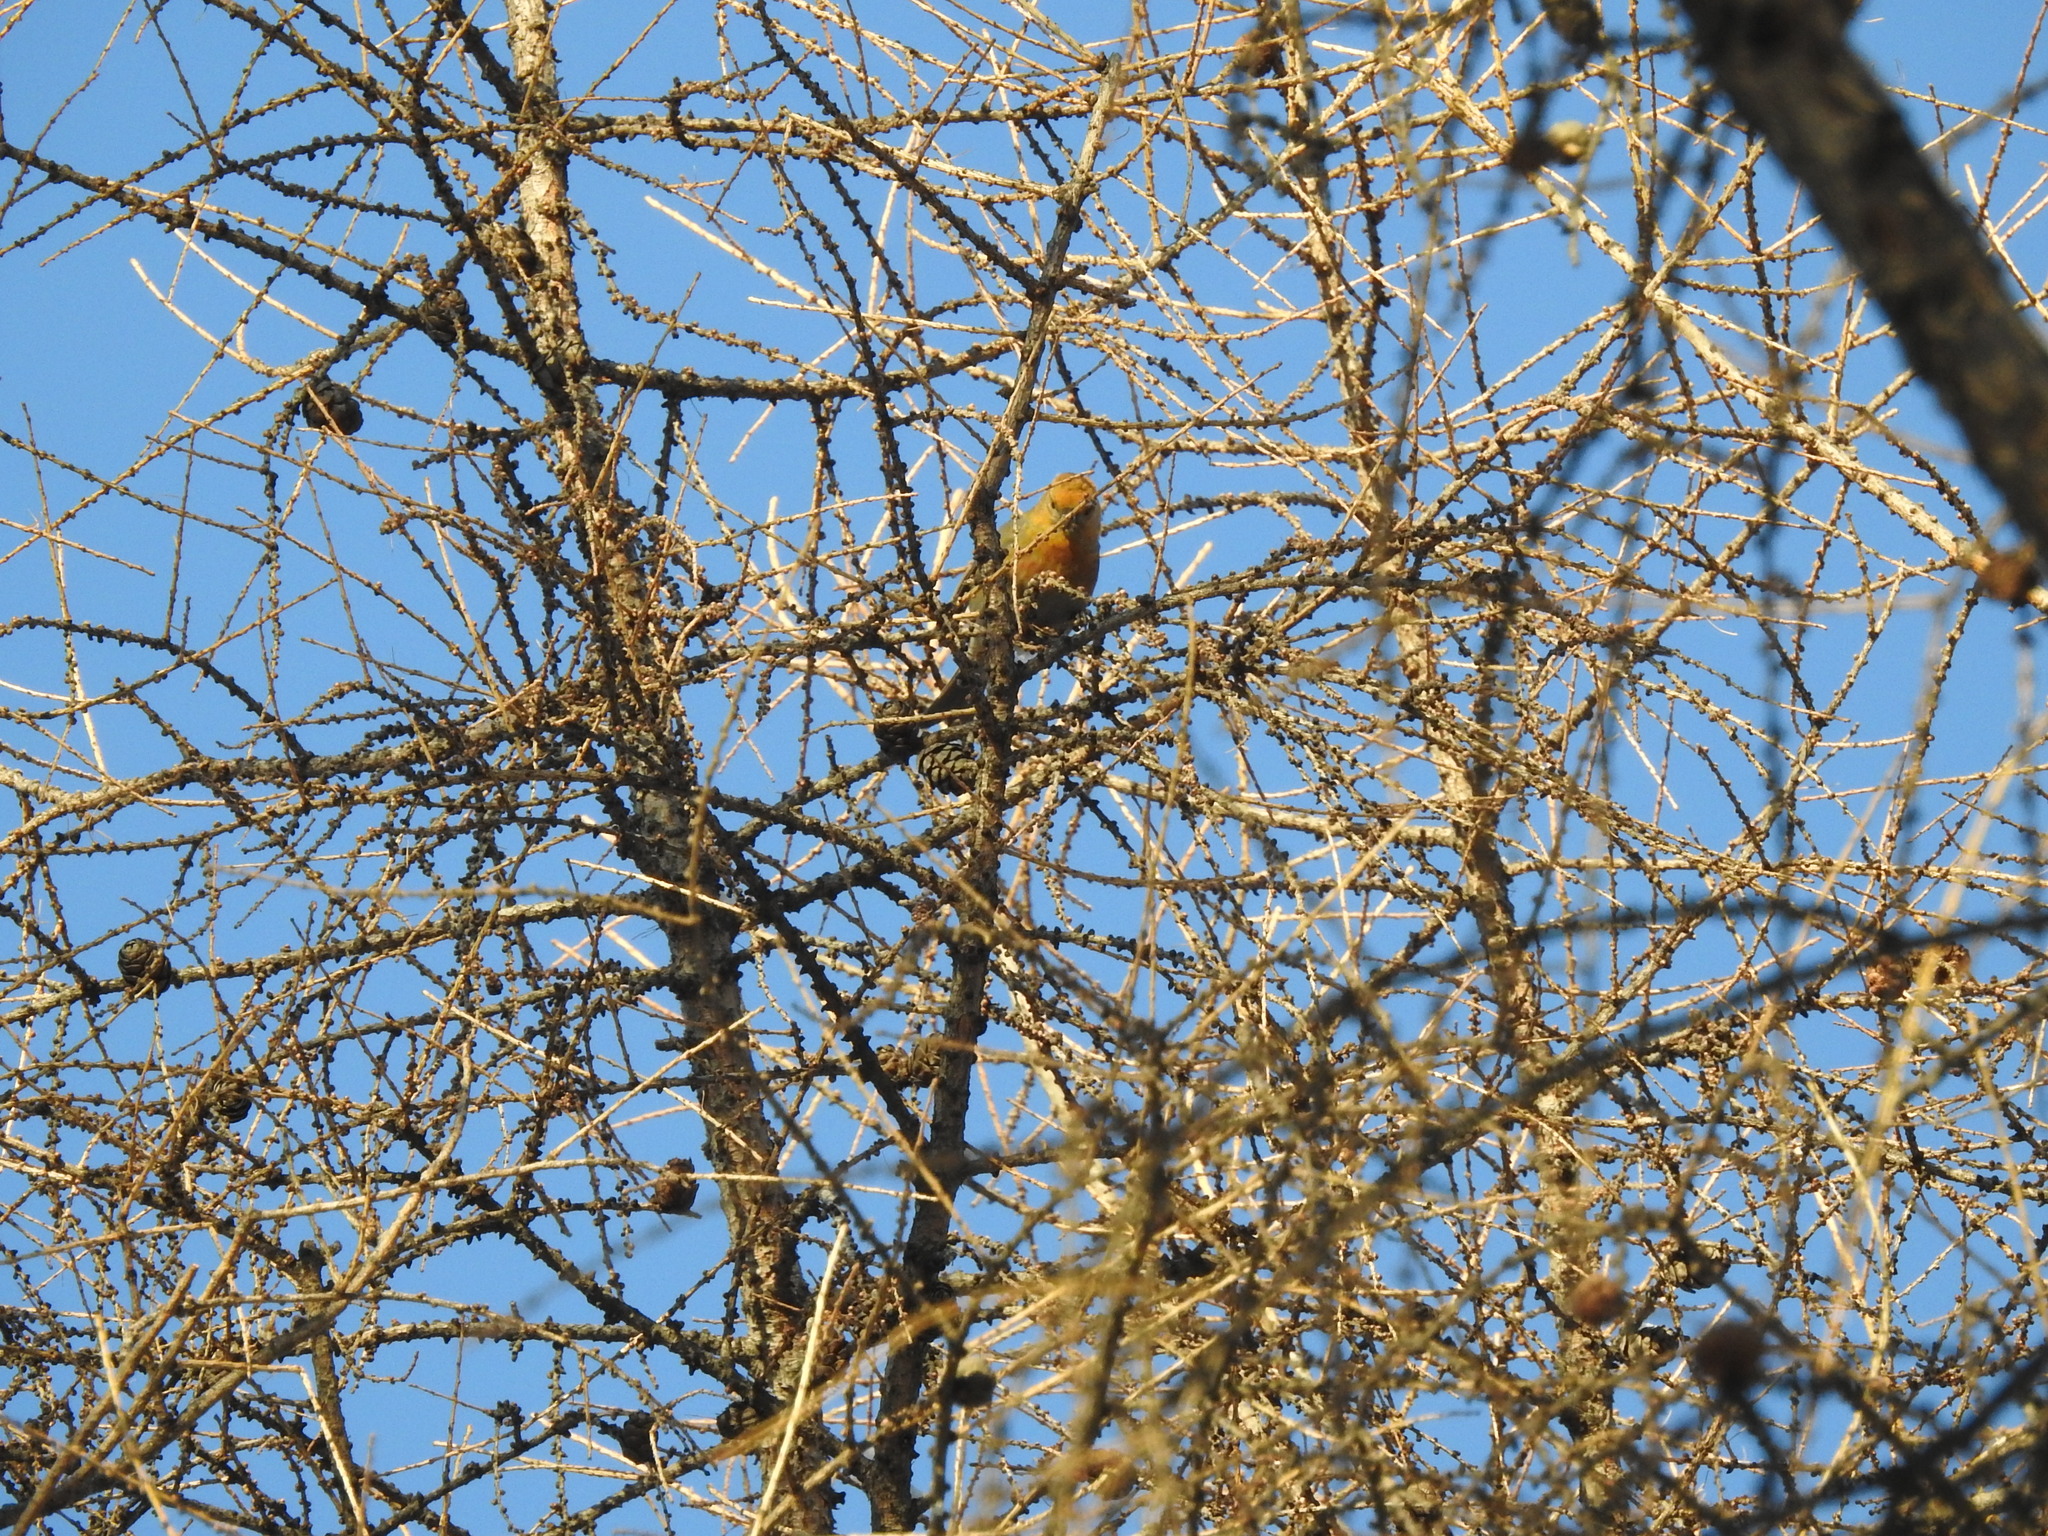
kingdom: Animalia
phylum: Chordata
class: Aves
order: Passeriformes
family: Fringillidae
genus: Pinicola
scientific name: Pinicola enucleator
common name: Pine grosbeak
